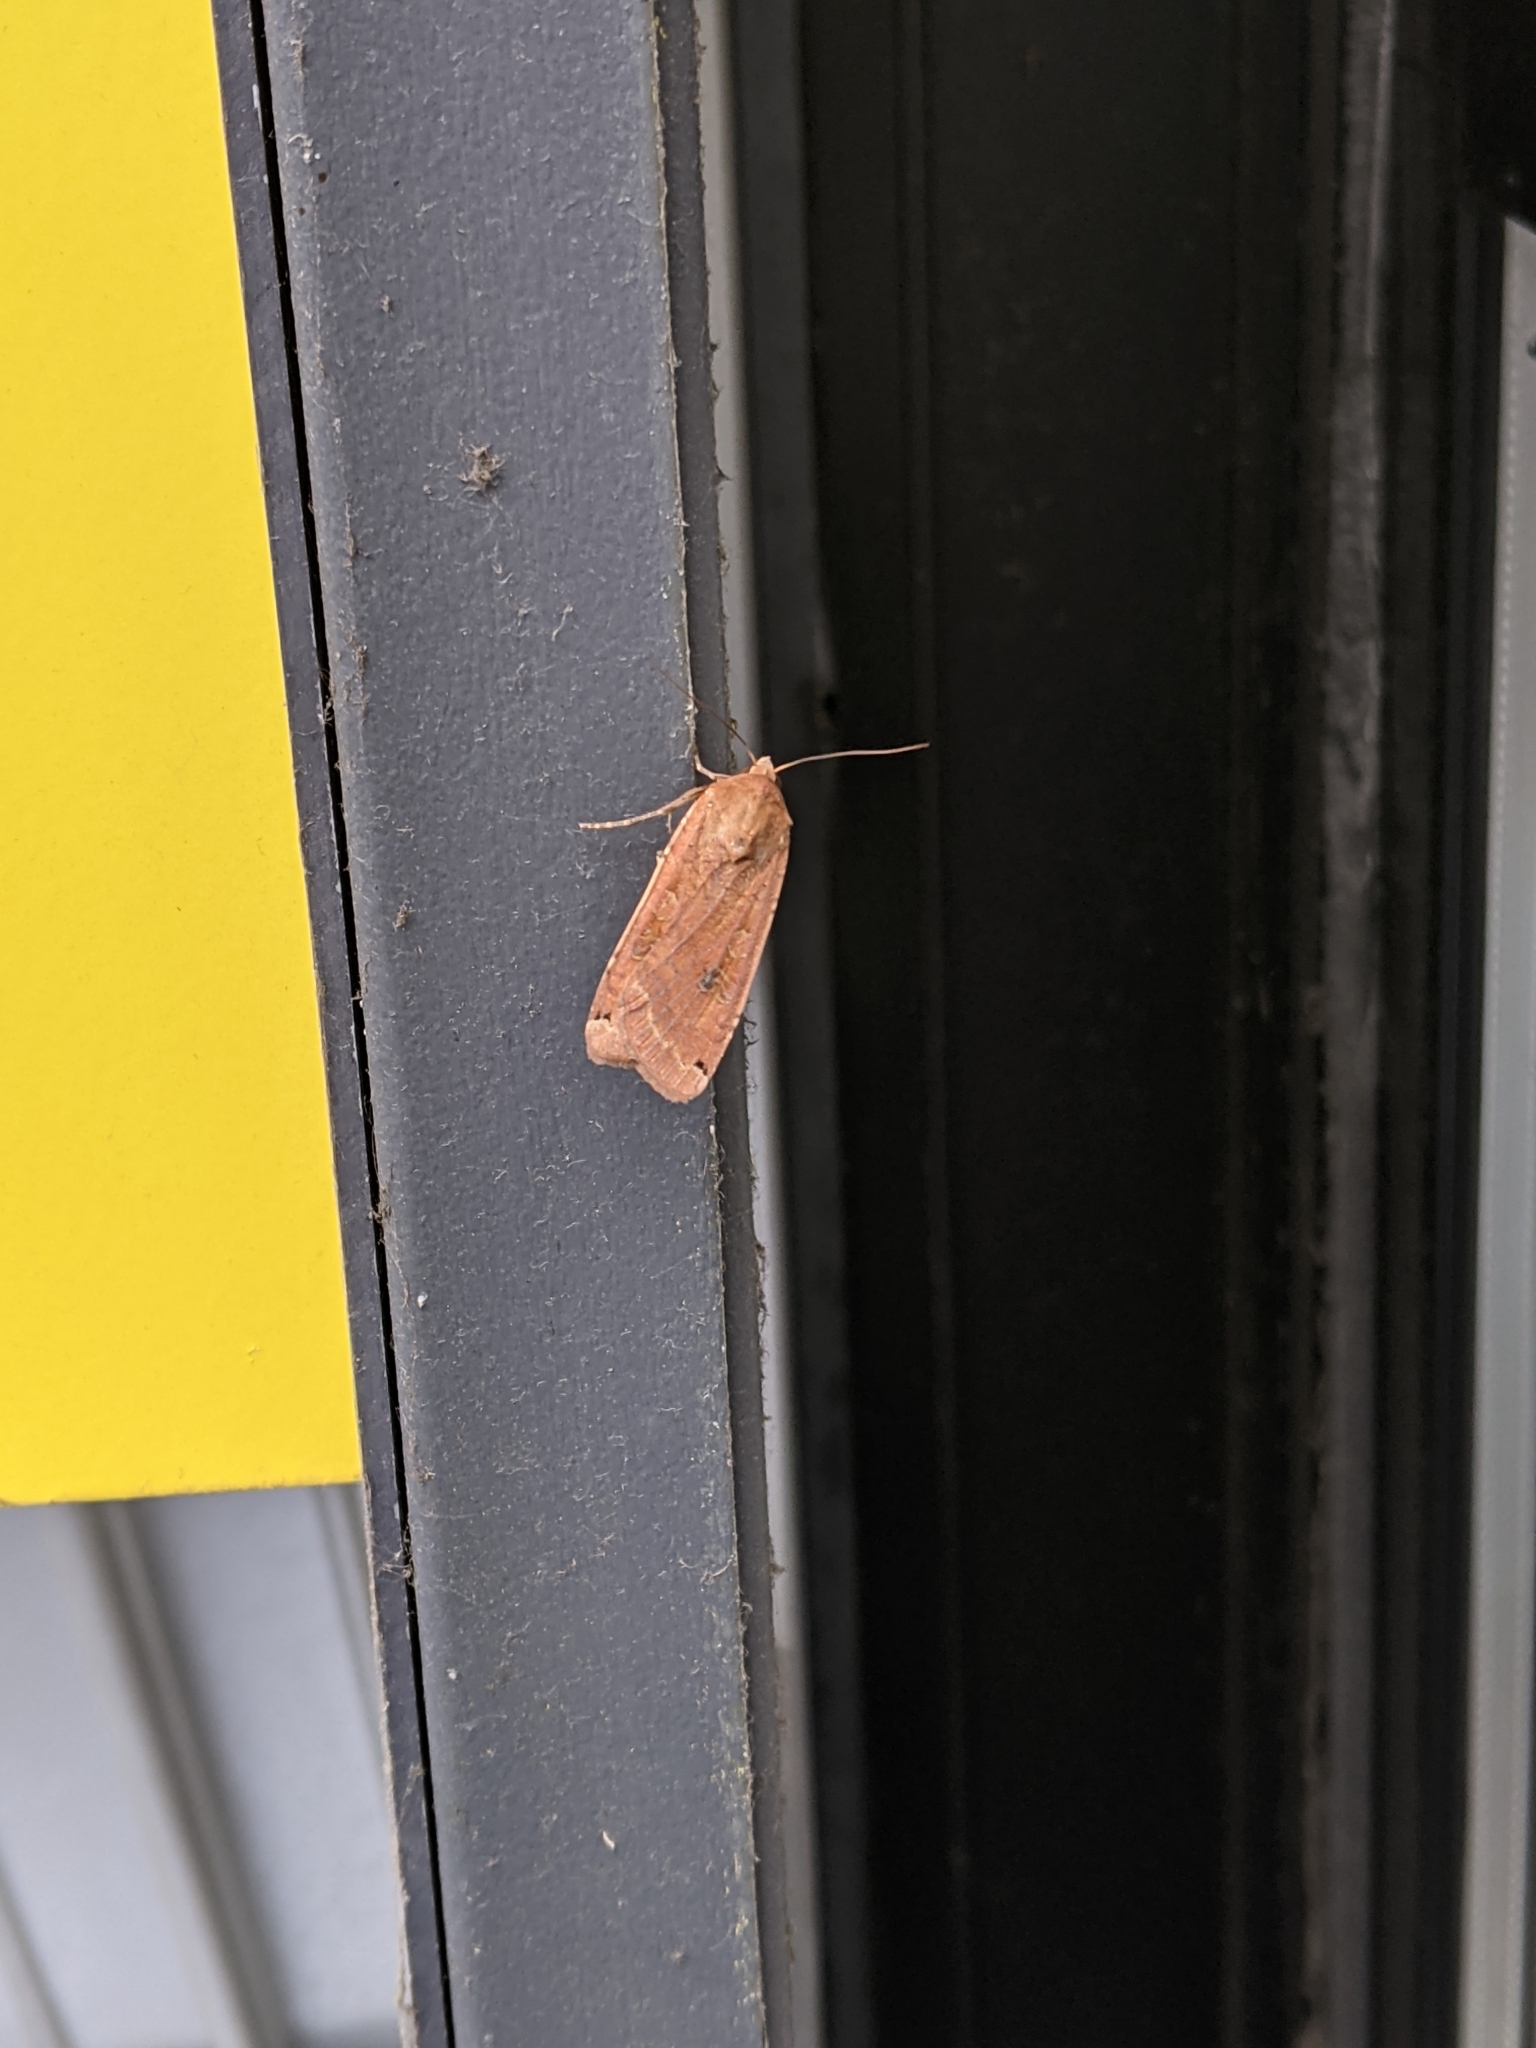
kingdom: Animalia
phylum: Arthropoda
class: Insecta
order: Lepidoptera
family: Noctuidae
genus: Noctua
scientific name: Noctua pronuba
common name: Large yellow underwing
